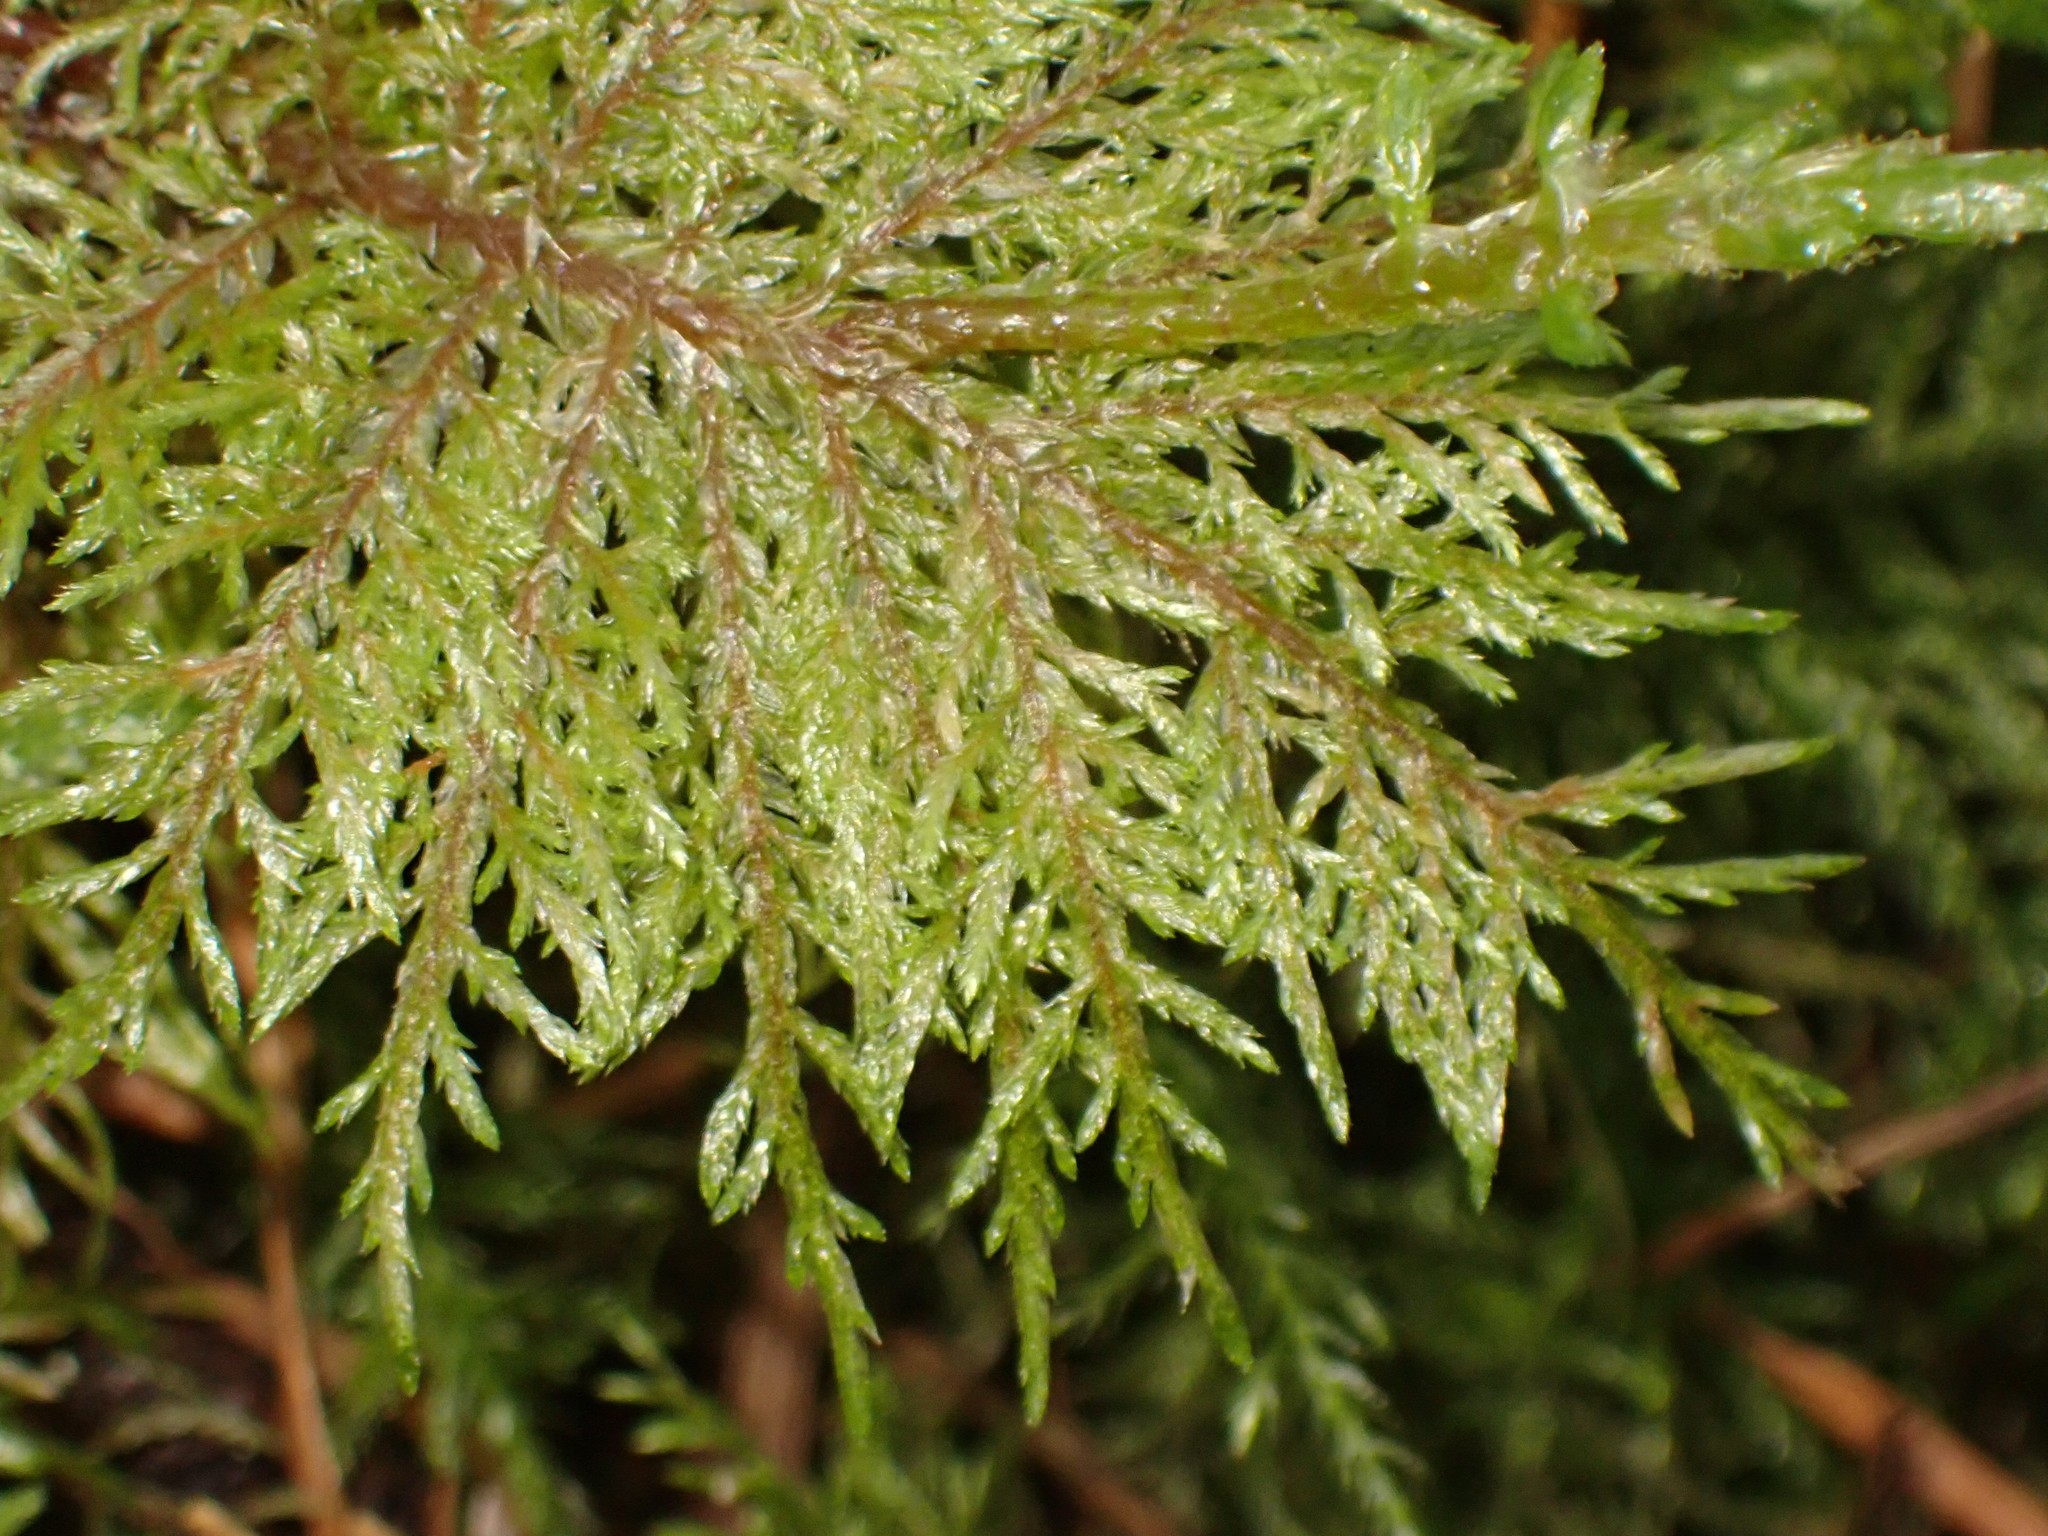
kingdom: Plantae
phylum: Bryophyta
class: Bryopsida
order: Hypnales
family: Hylocomiaceae
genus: Hylocomium
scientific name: Hylocomium splendens
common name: Stairstep moss
